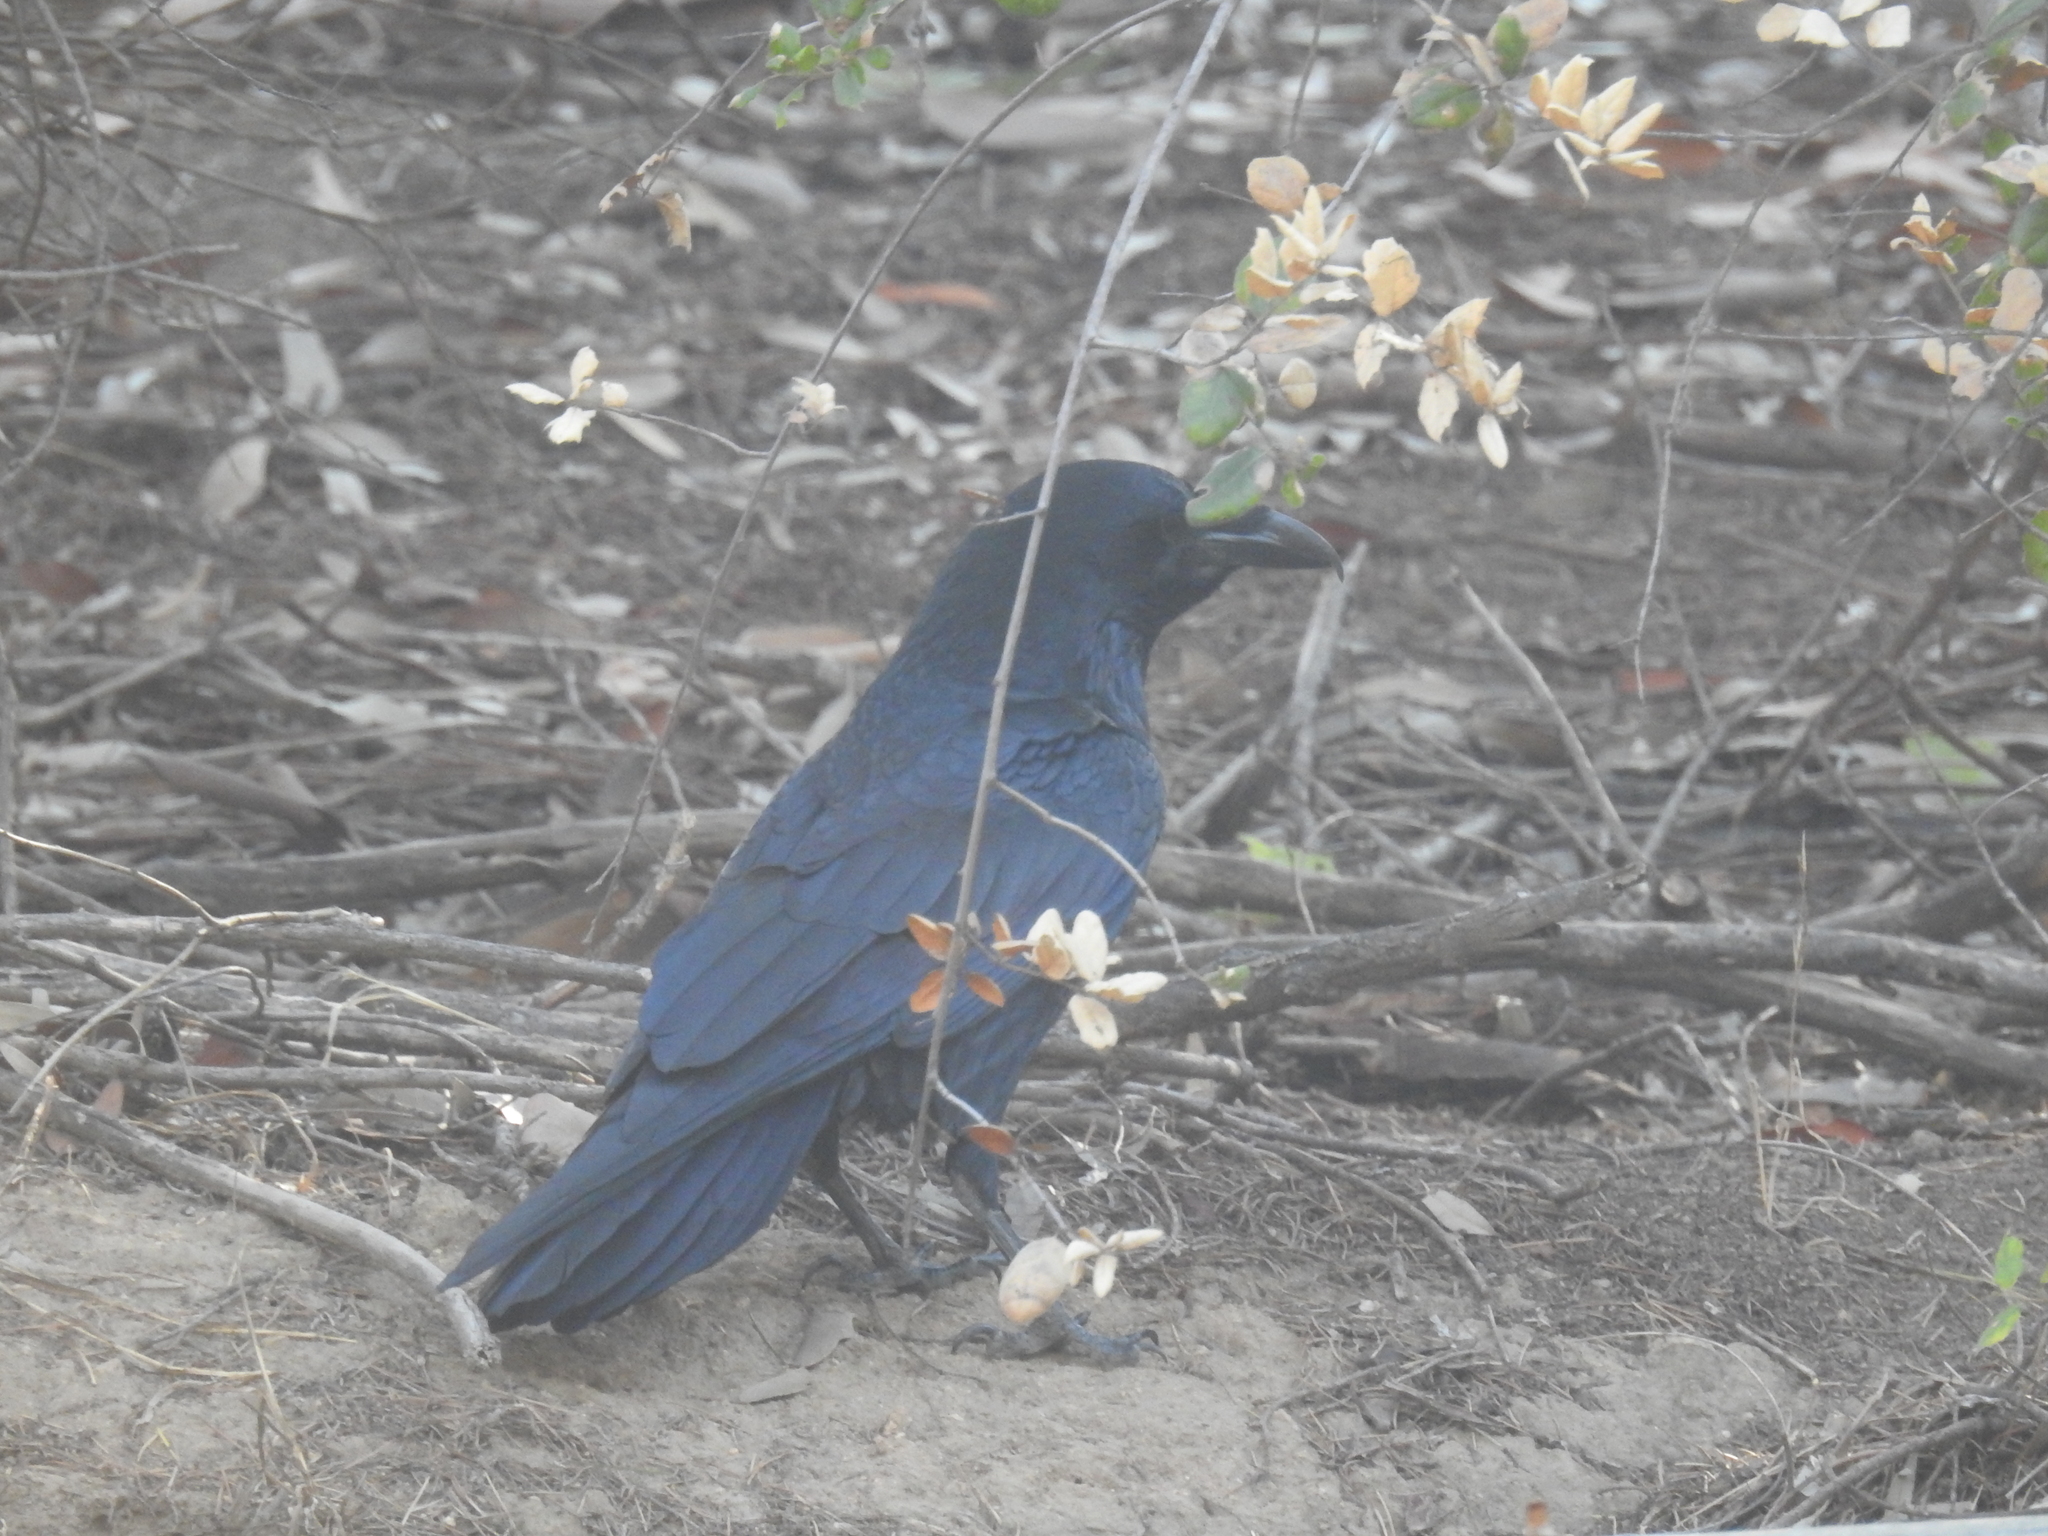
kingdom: Animalia
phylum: Chordata
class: Aves
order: Passeriformes
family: Corvidae
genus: Corvus
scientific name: Corvus corax
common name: Common raven
